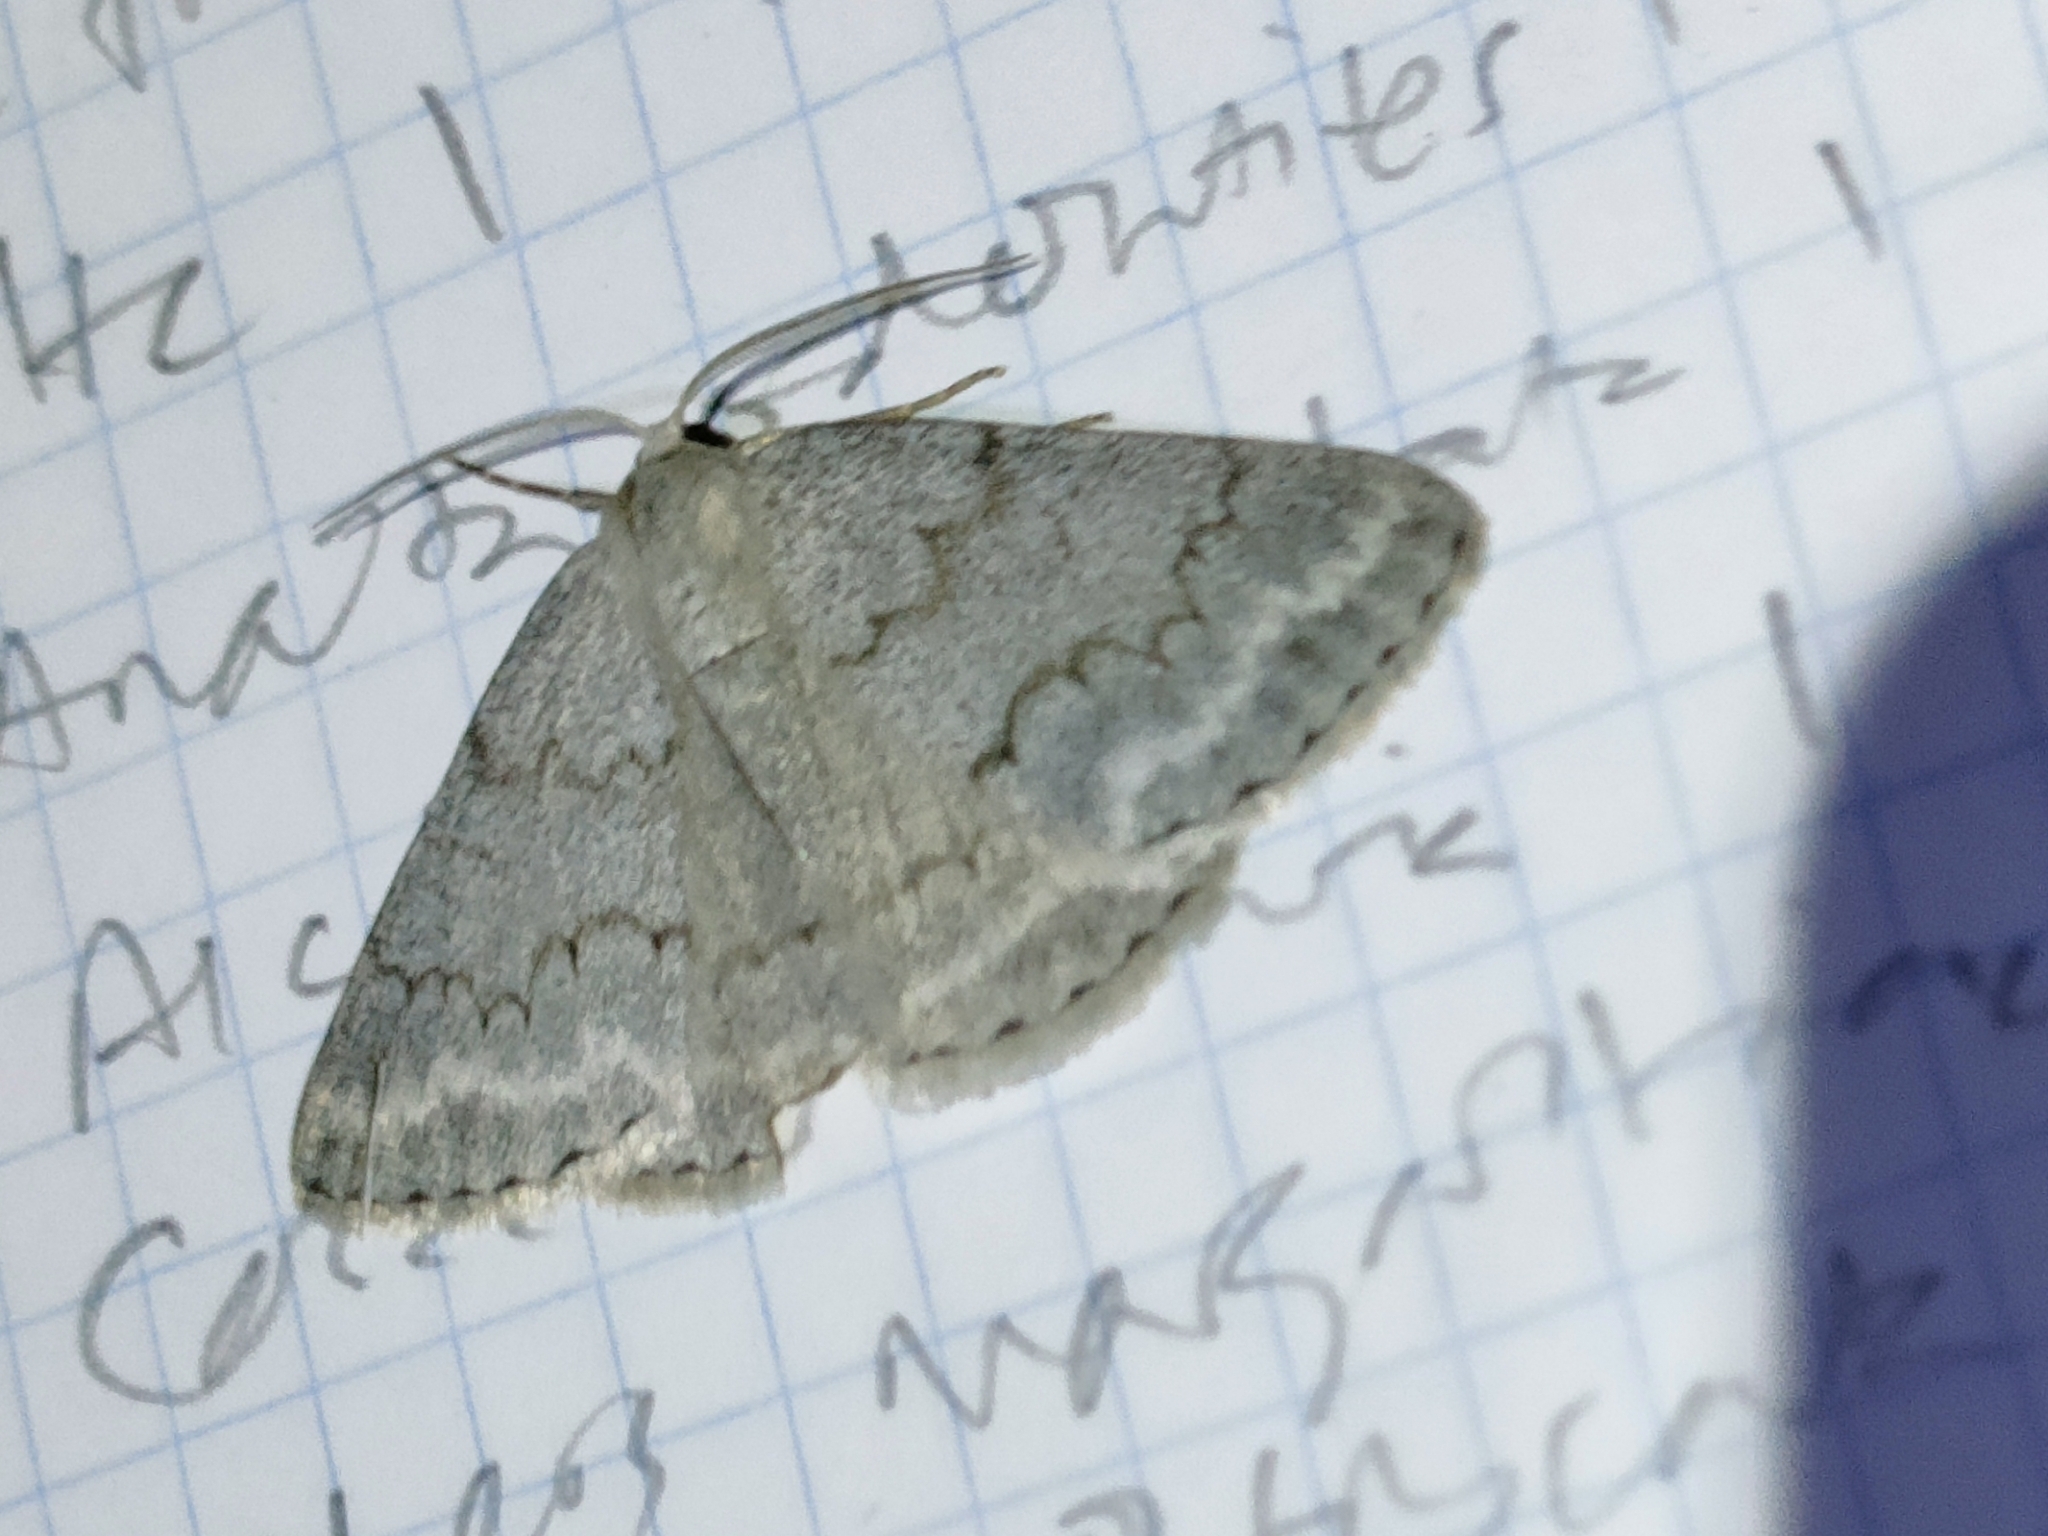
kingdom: Animalia
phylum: Arthropoda
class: Insecta
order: Lepidoptera
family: Geometridae
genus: Pseudoterpna
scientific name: Pseudoterpna coronillaria
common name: Jersey emerald
